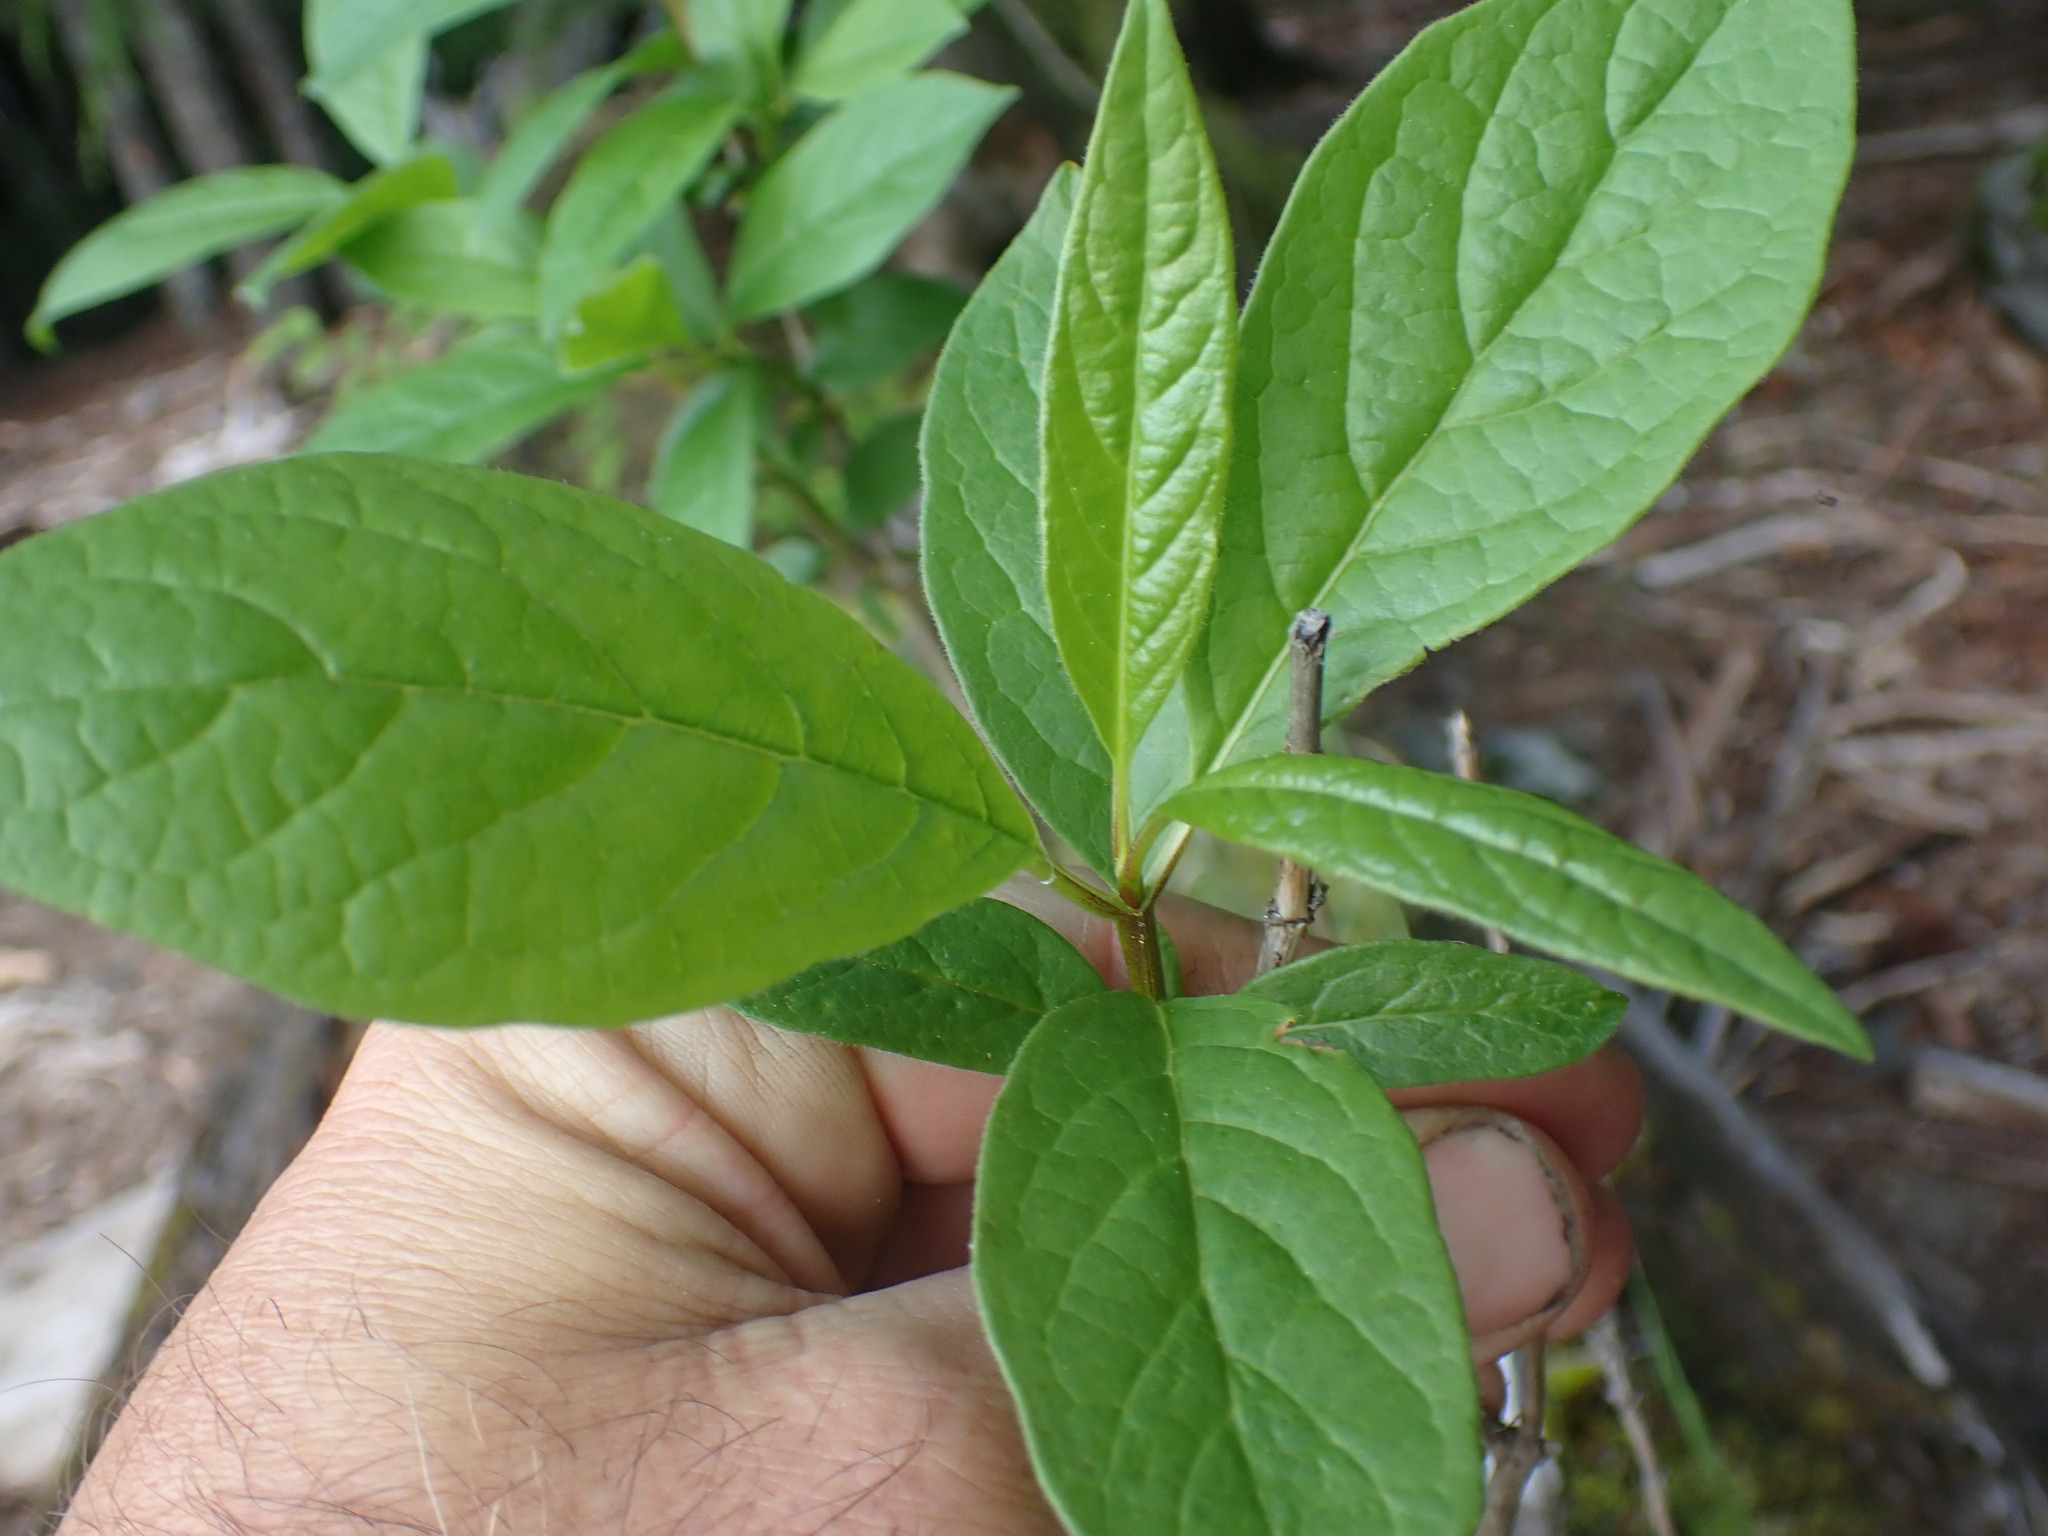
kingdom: Plantae
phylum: Tracheophyta
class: Magnoliopsida
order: Dipsacales
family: Caprifoliaceae
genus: Lonicera
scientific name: Lonicera involucrata
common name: Californian honeysuckle
